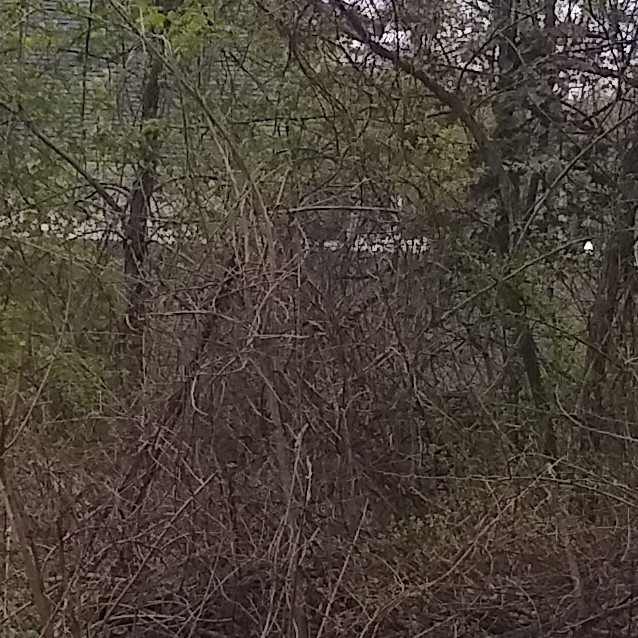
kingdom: Animalia
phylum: Chordata
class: Aves
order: Passeriformes
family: Tyrannidae
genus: Sayornis
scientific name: Sayornis phoebe
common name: Eastern phoebe
